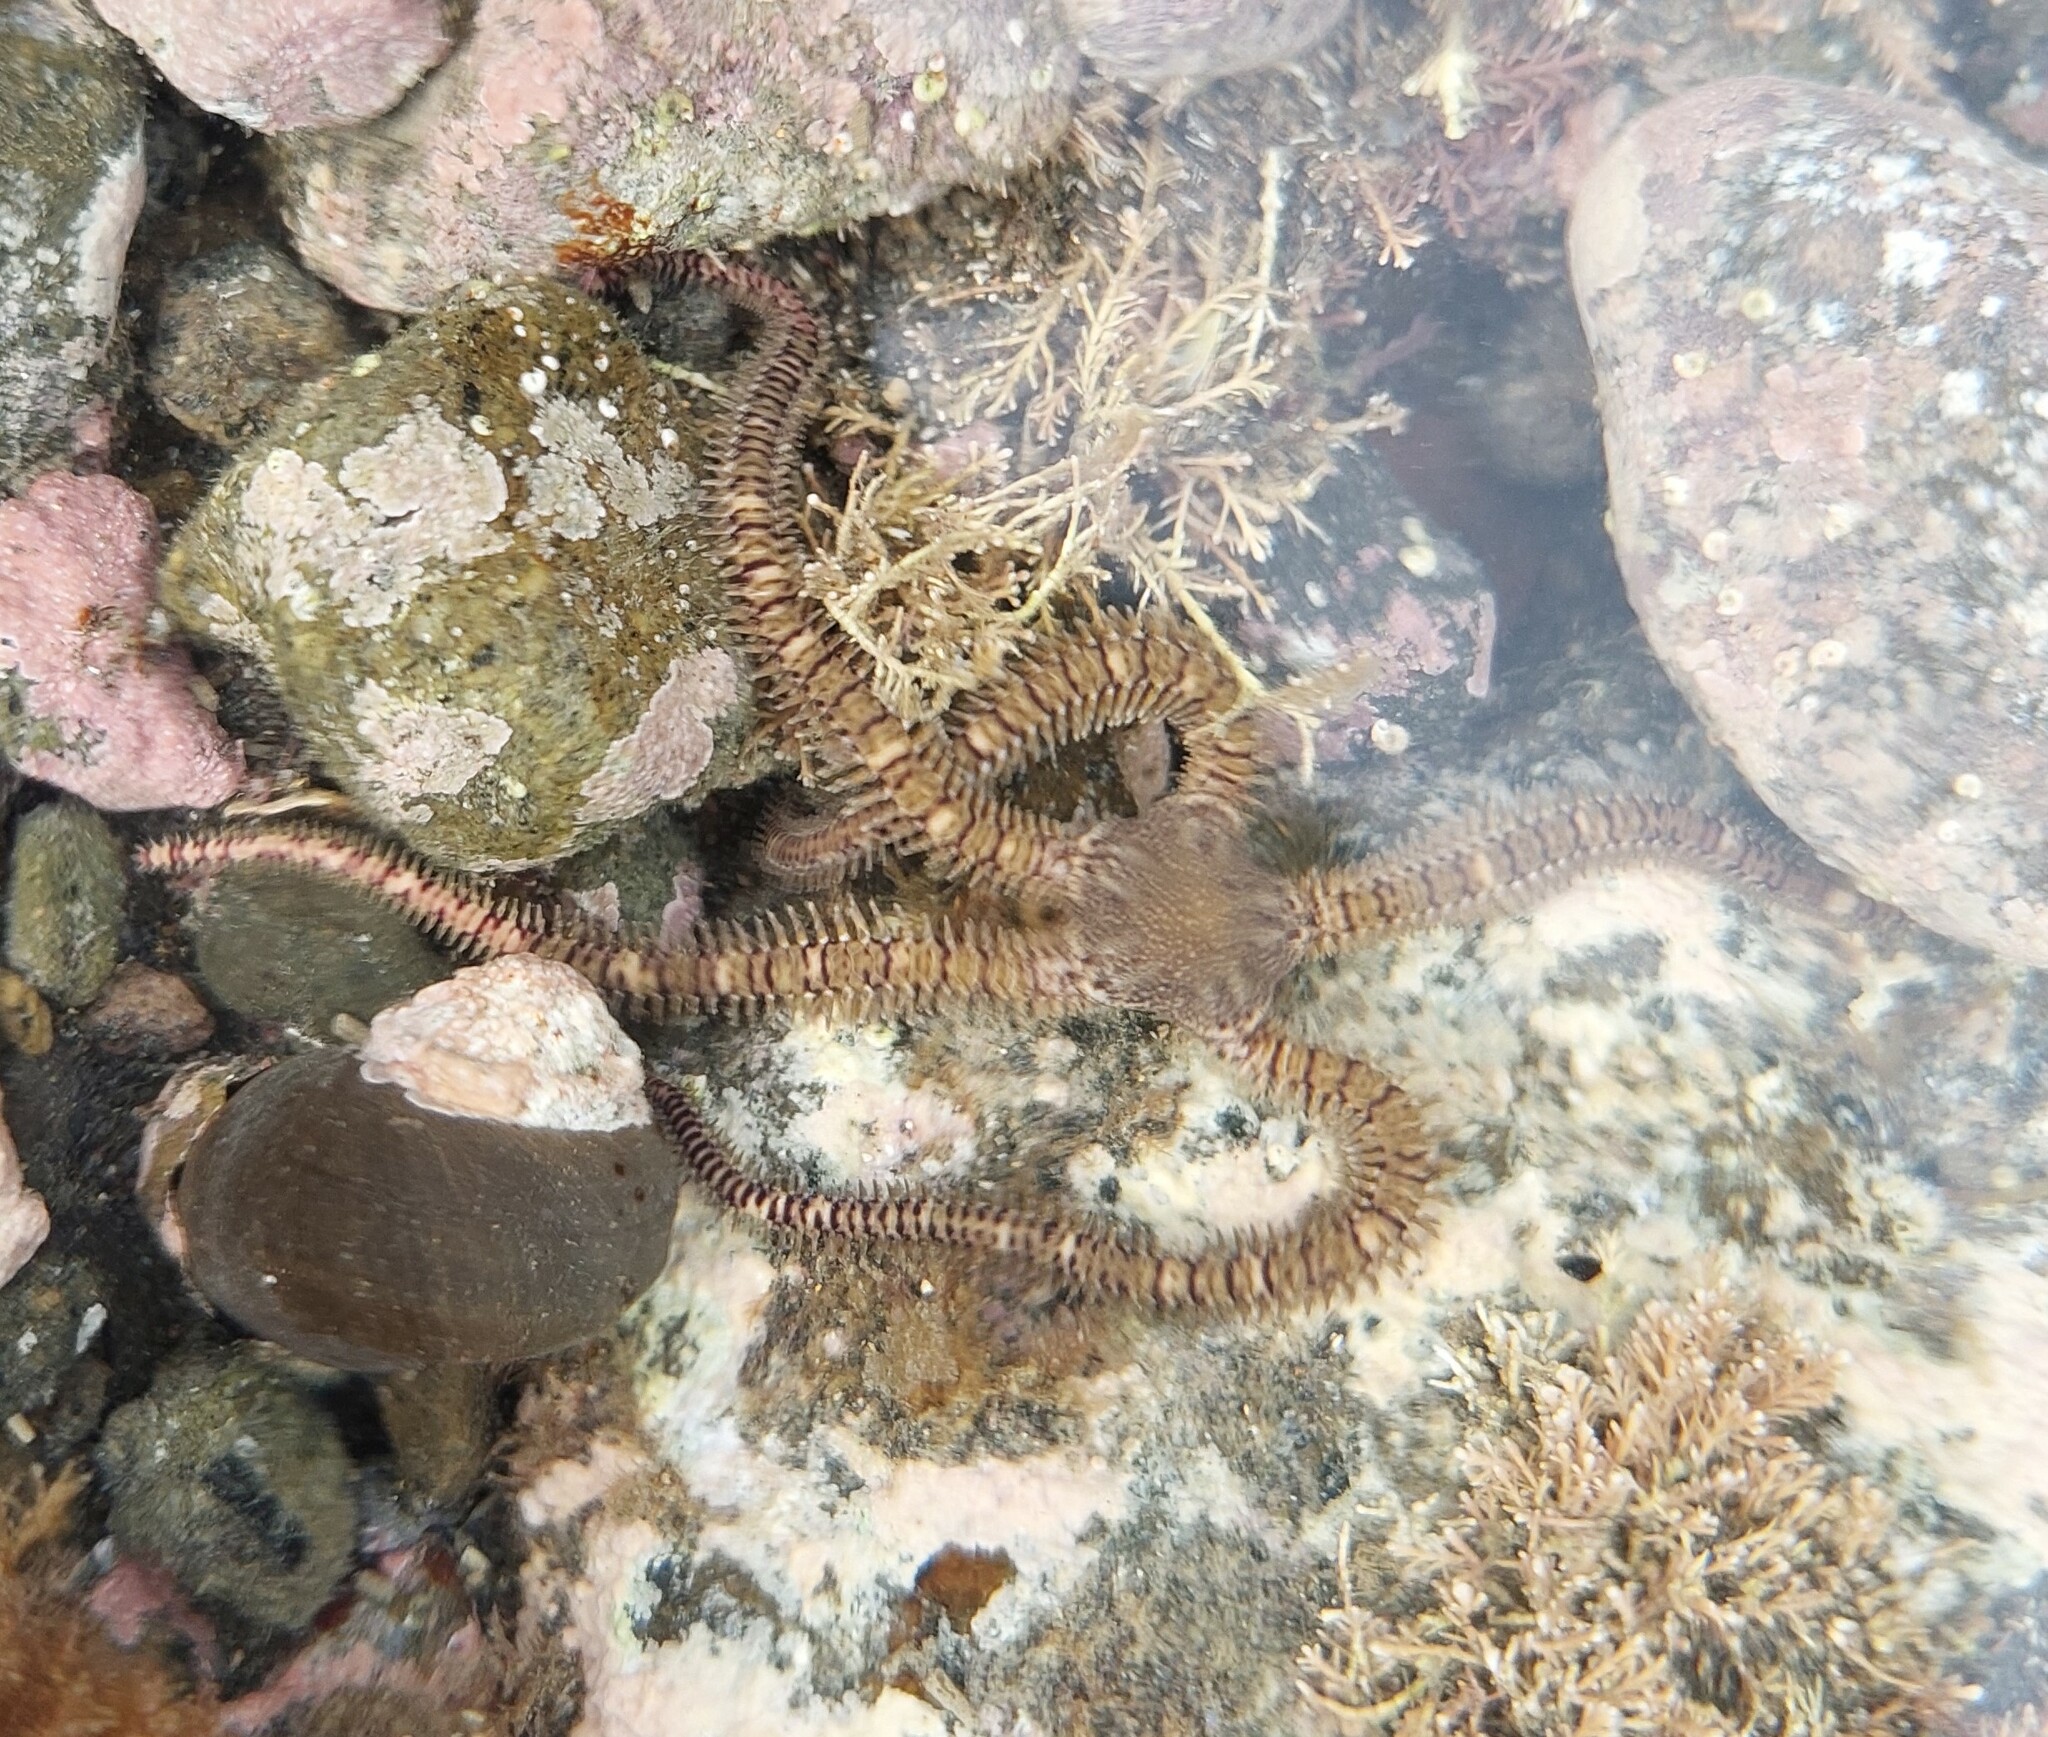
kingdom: Animalia
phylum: Echinodermata
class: Ophiuroidea
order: Amphilepidida
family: Ophionereididae
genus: Ophionereis
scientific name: Ophionereis fasciata
